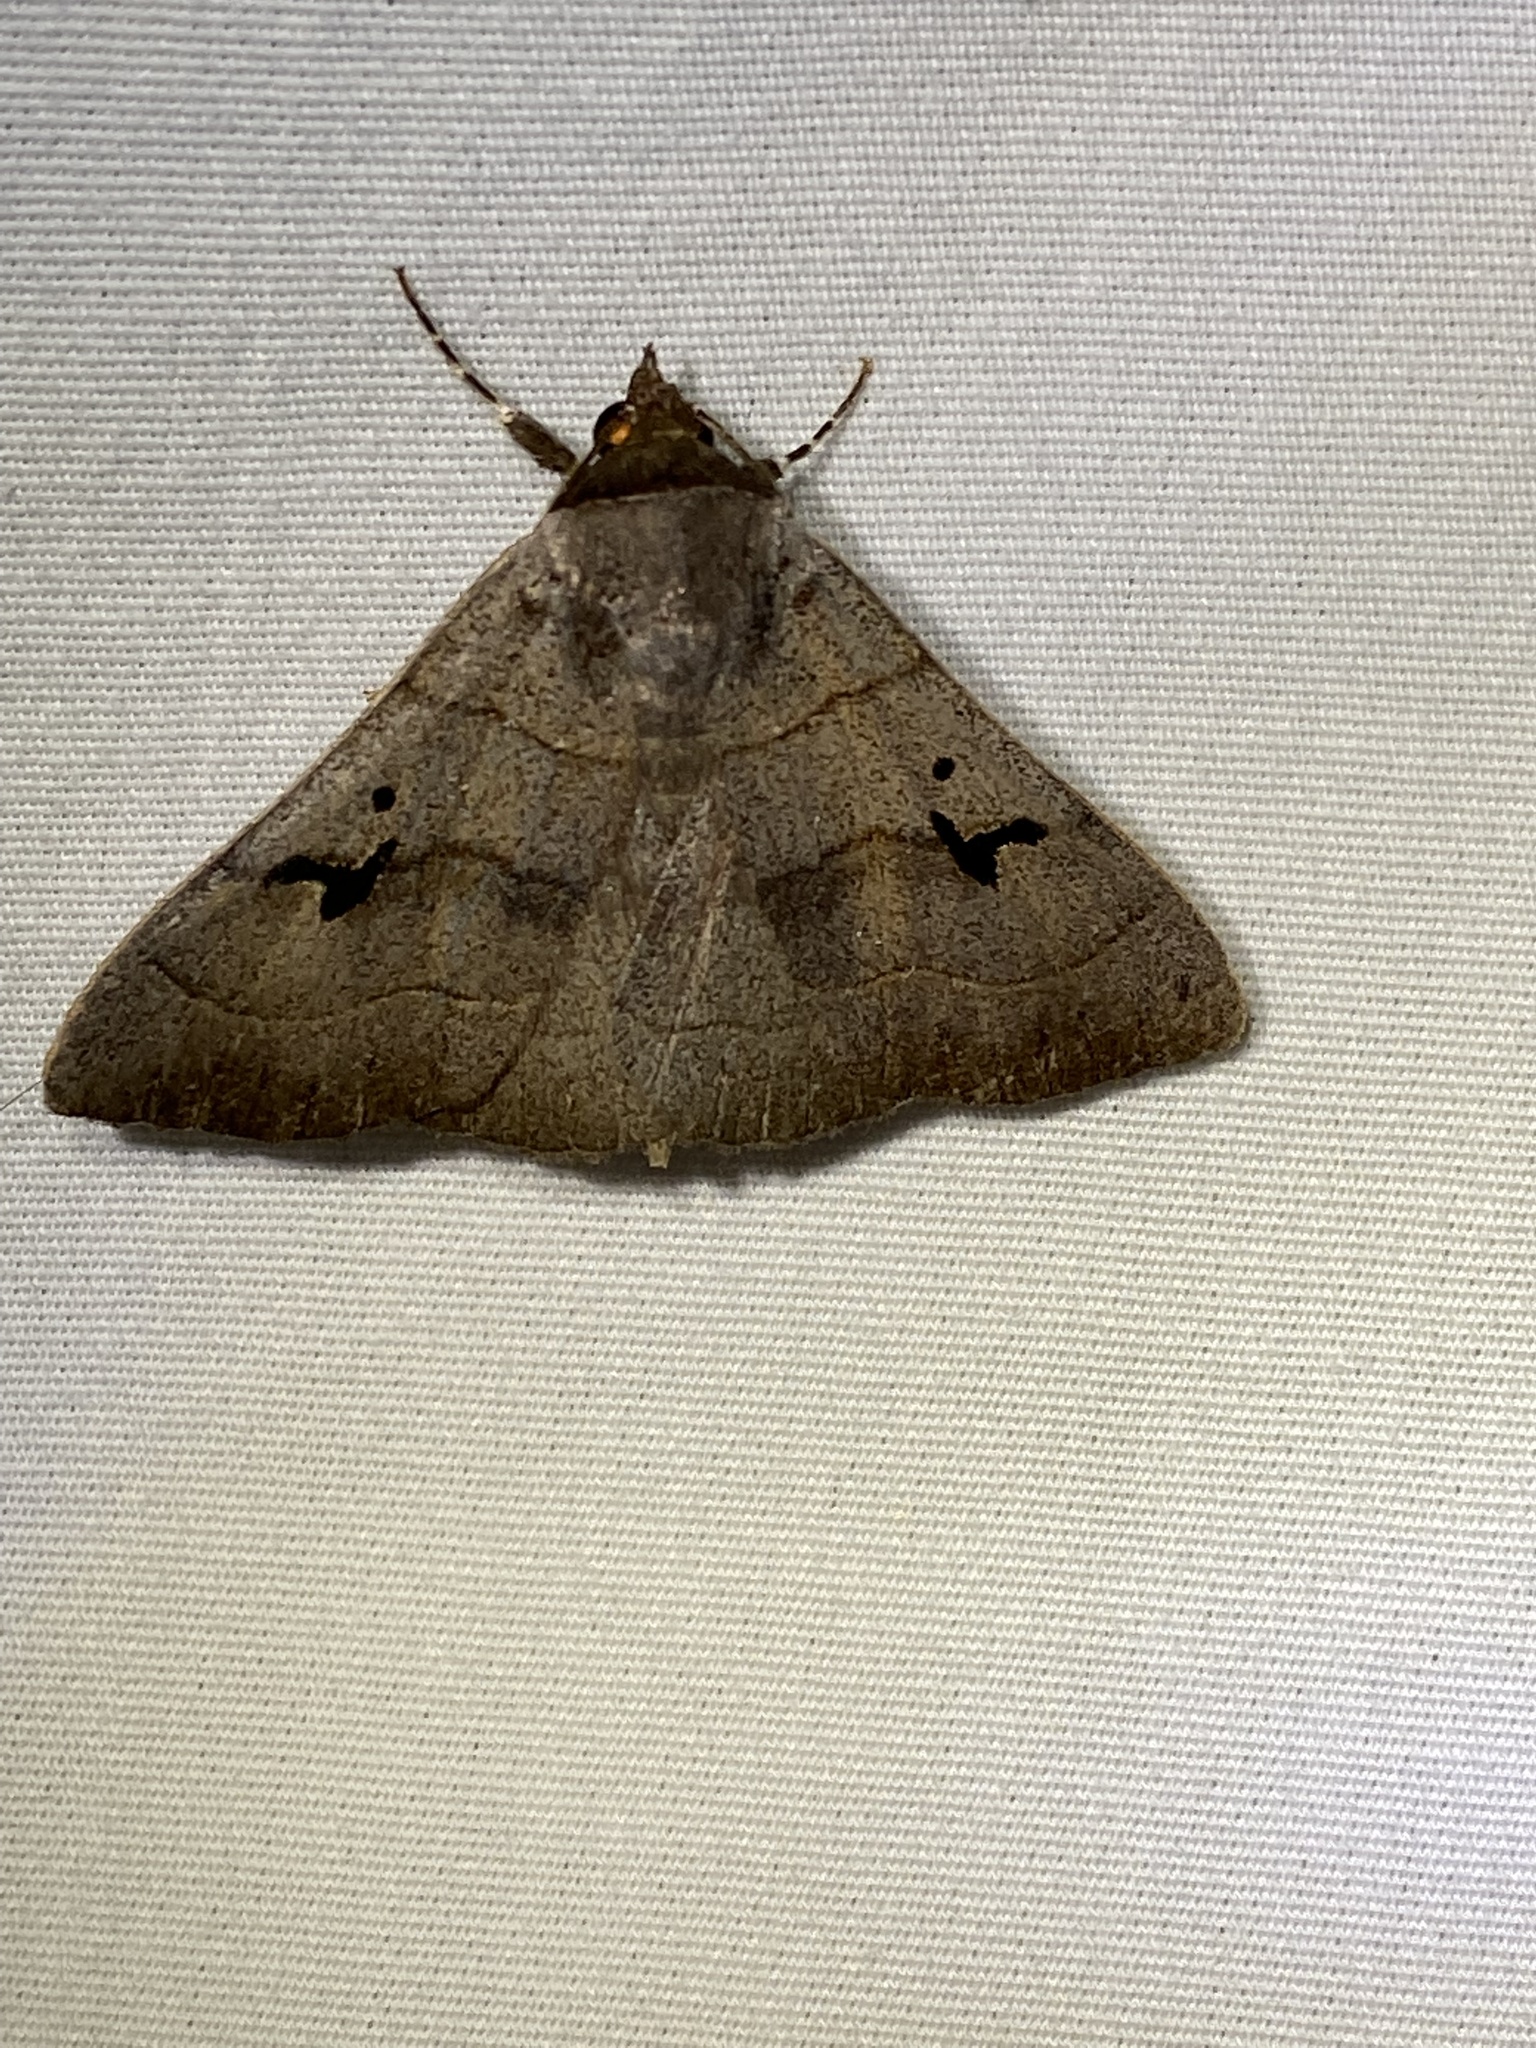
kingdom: Animalia
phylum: Arthropoda
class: Insecta
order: Lepidoptera
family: Erebidae
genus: Panopoda
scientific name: Panopoda carneicosta
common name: Brown panopoda moth
